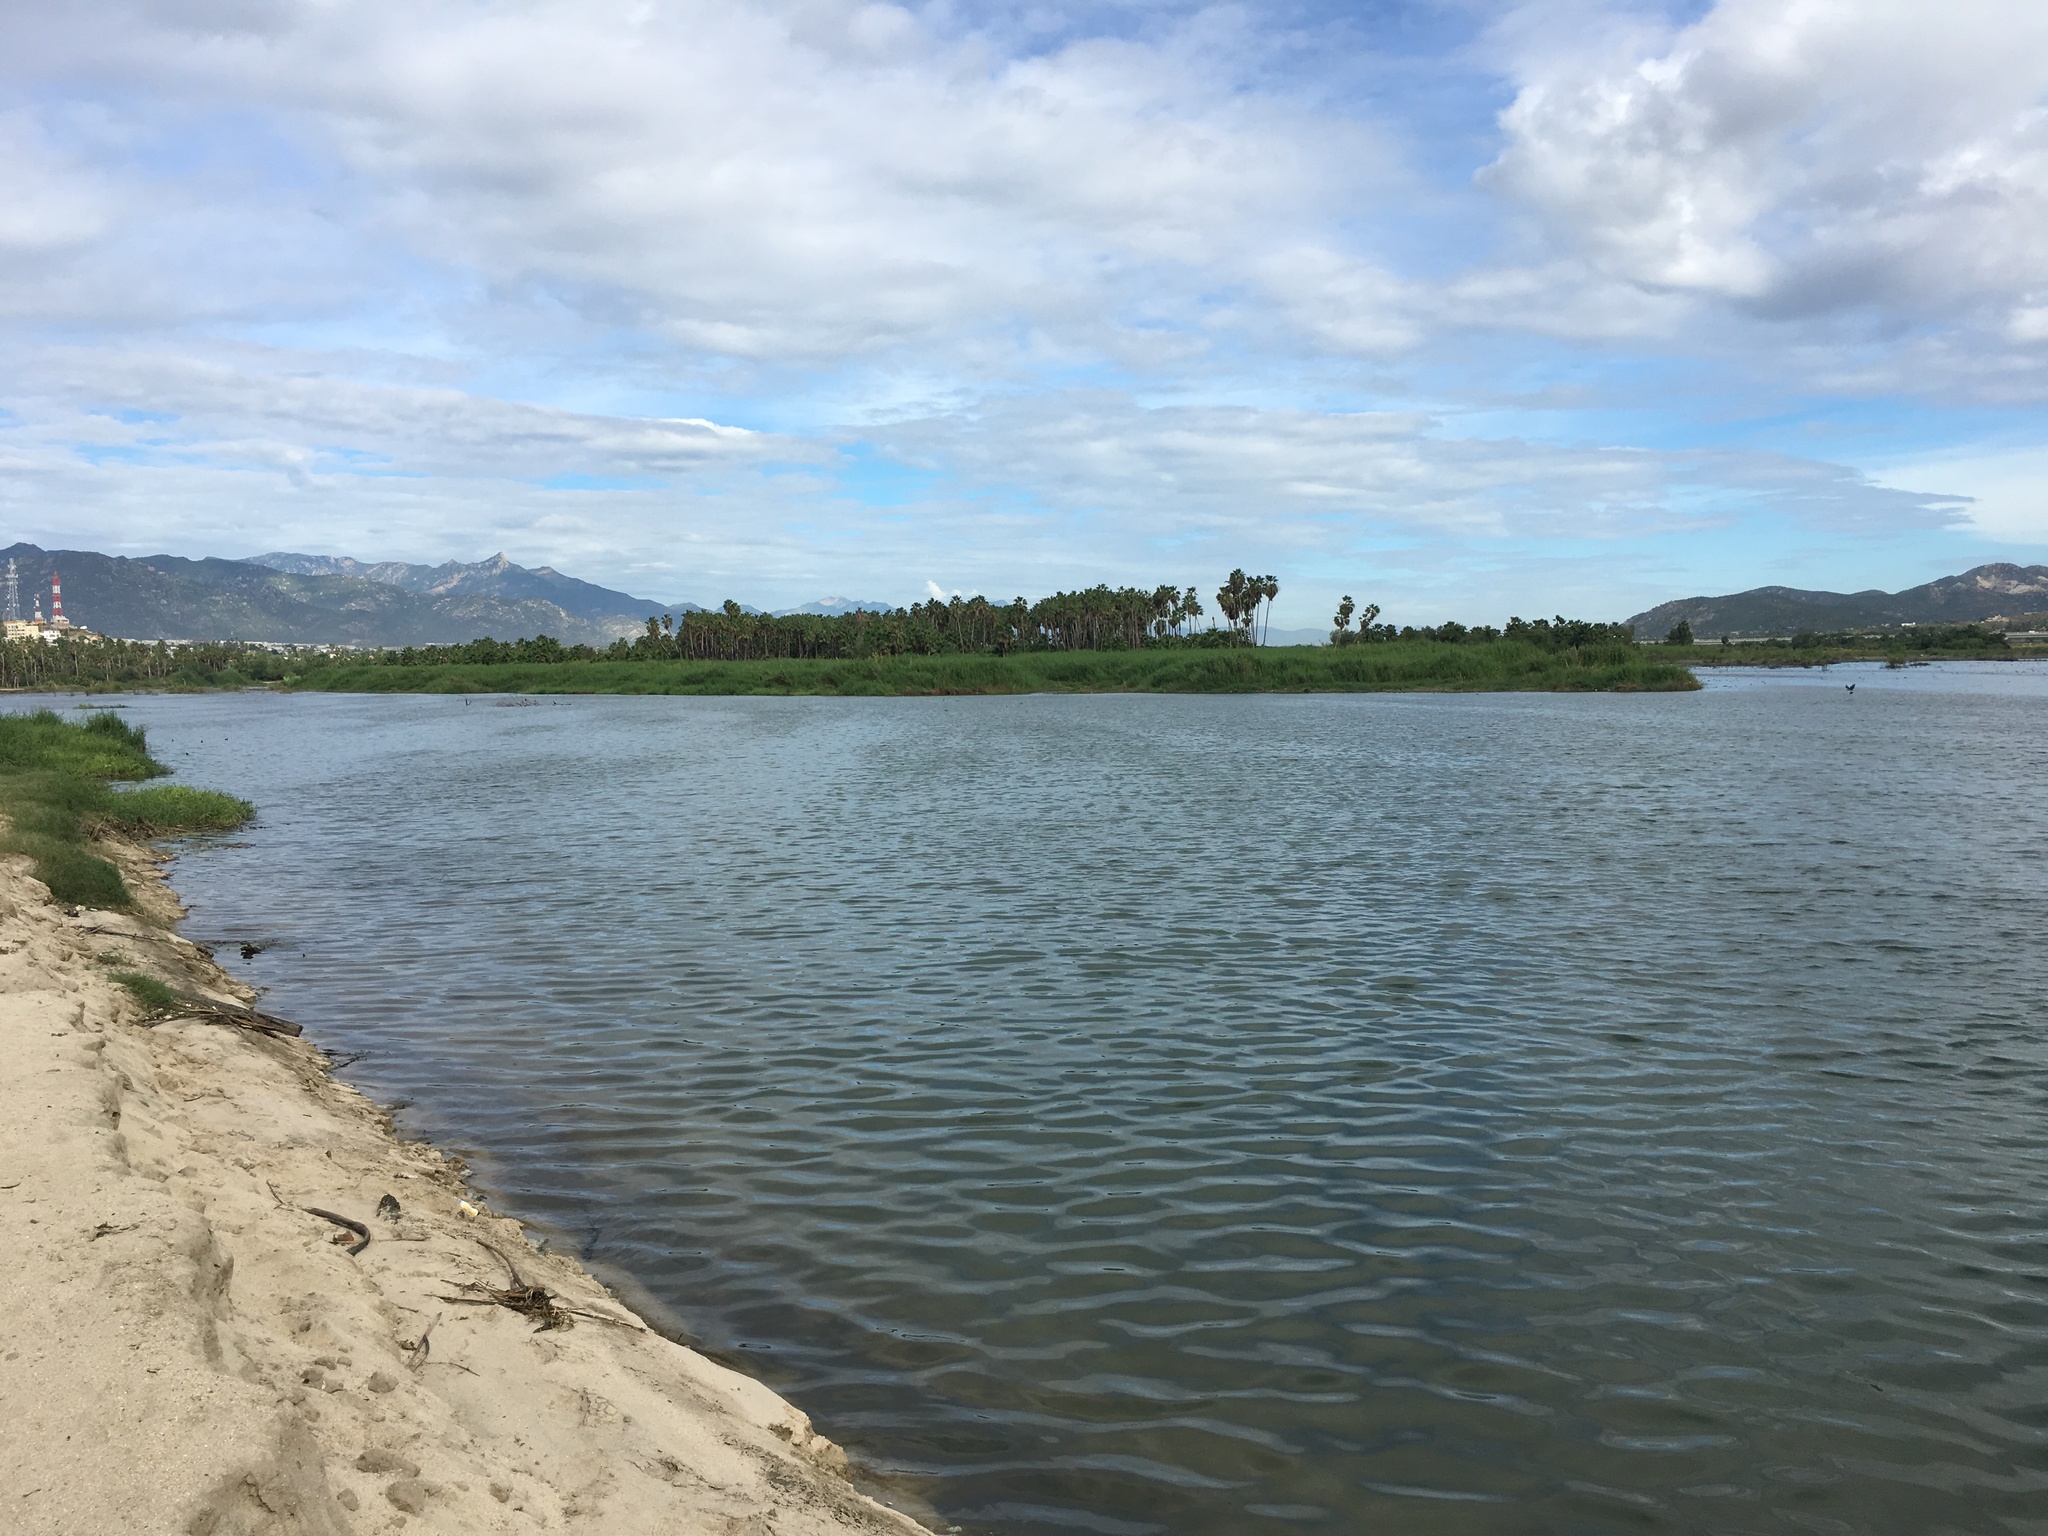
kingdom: Plantae
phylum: Tracheophyta
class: Liliopsida
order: Arecales
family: Arecaceae
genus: Washingtonia
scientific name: Washingtonia robusta
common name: Mexican fan palm
